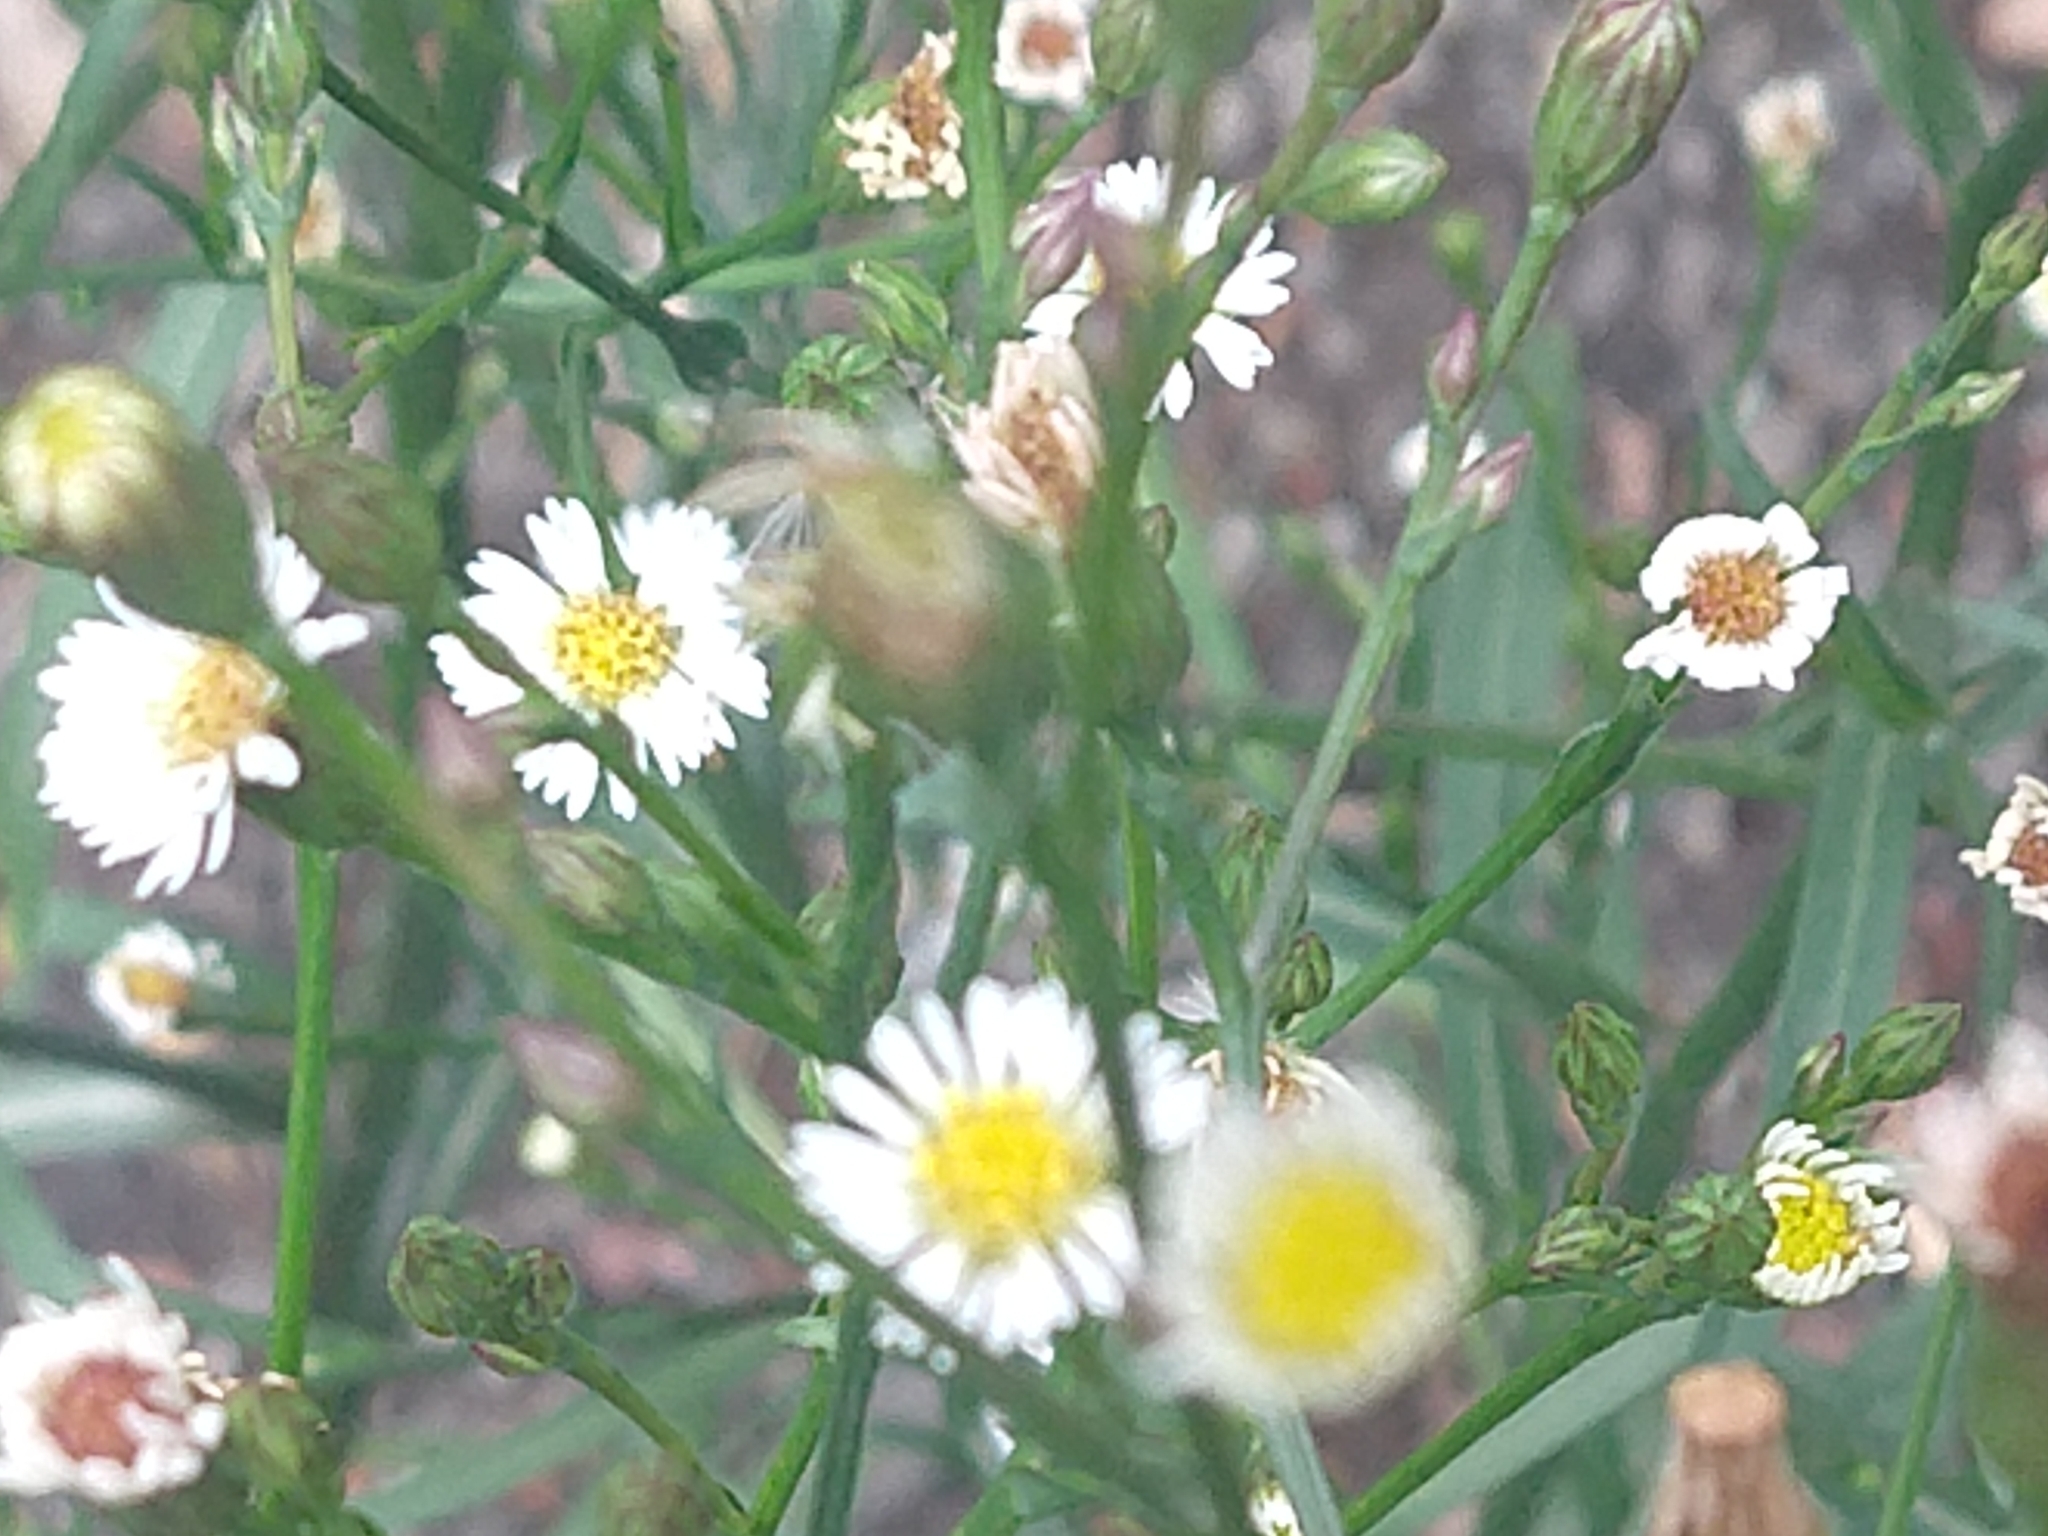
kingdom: Plantae
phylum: Tracheophyta
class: Magnoliopsida
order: Asterales
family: Asteraceae
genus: Symphyotrichum
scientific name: Symphyotrichum subulatum
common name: Annual saltmarsh aster
